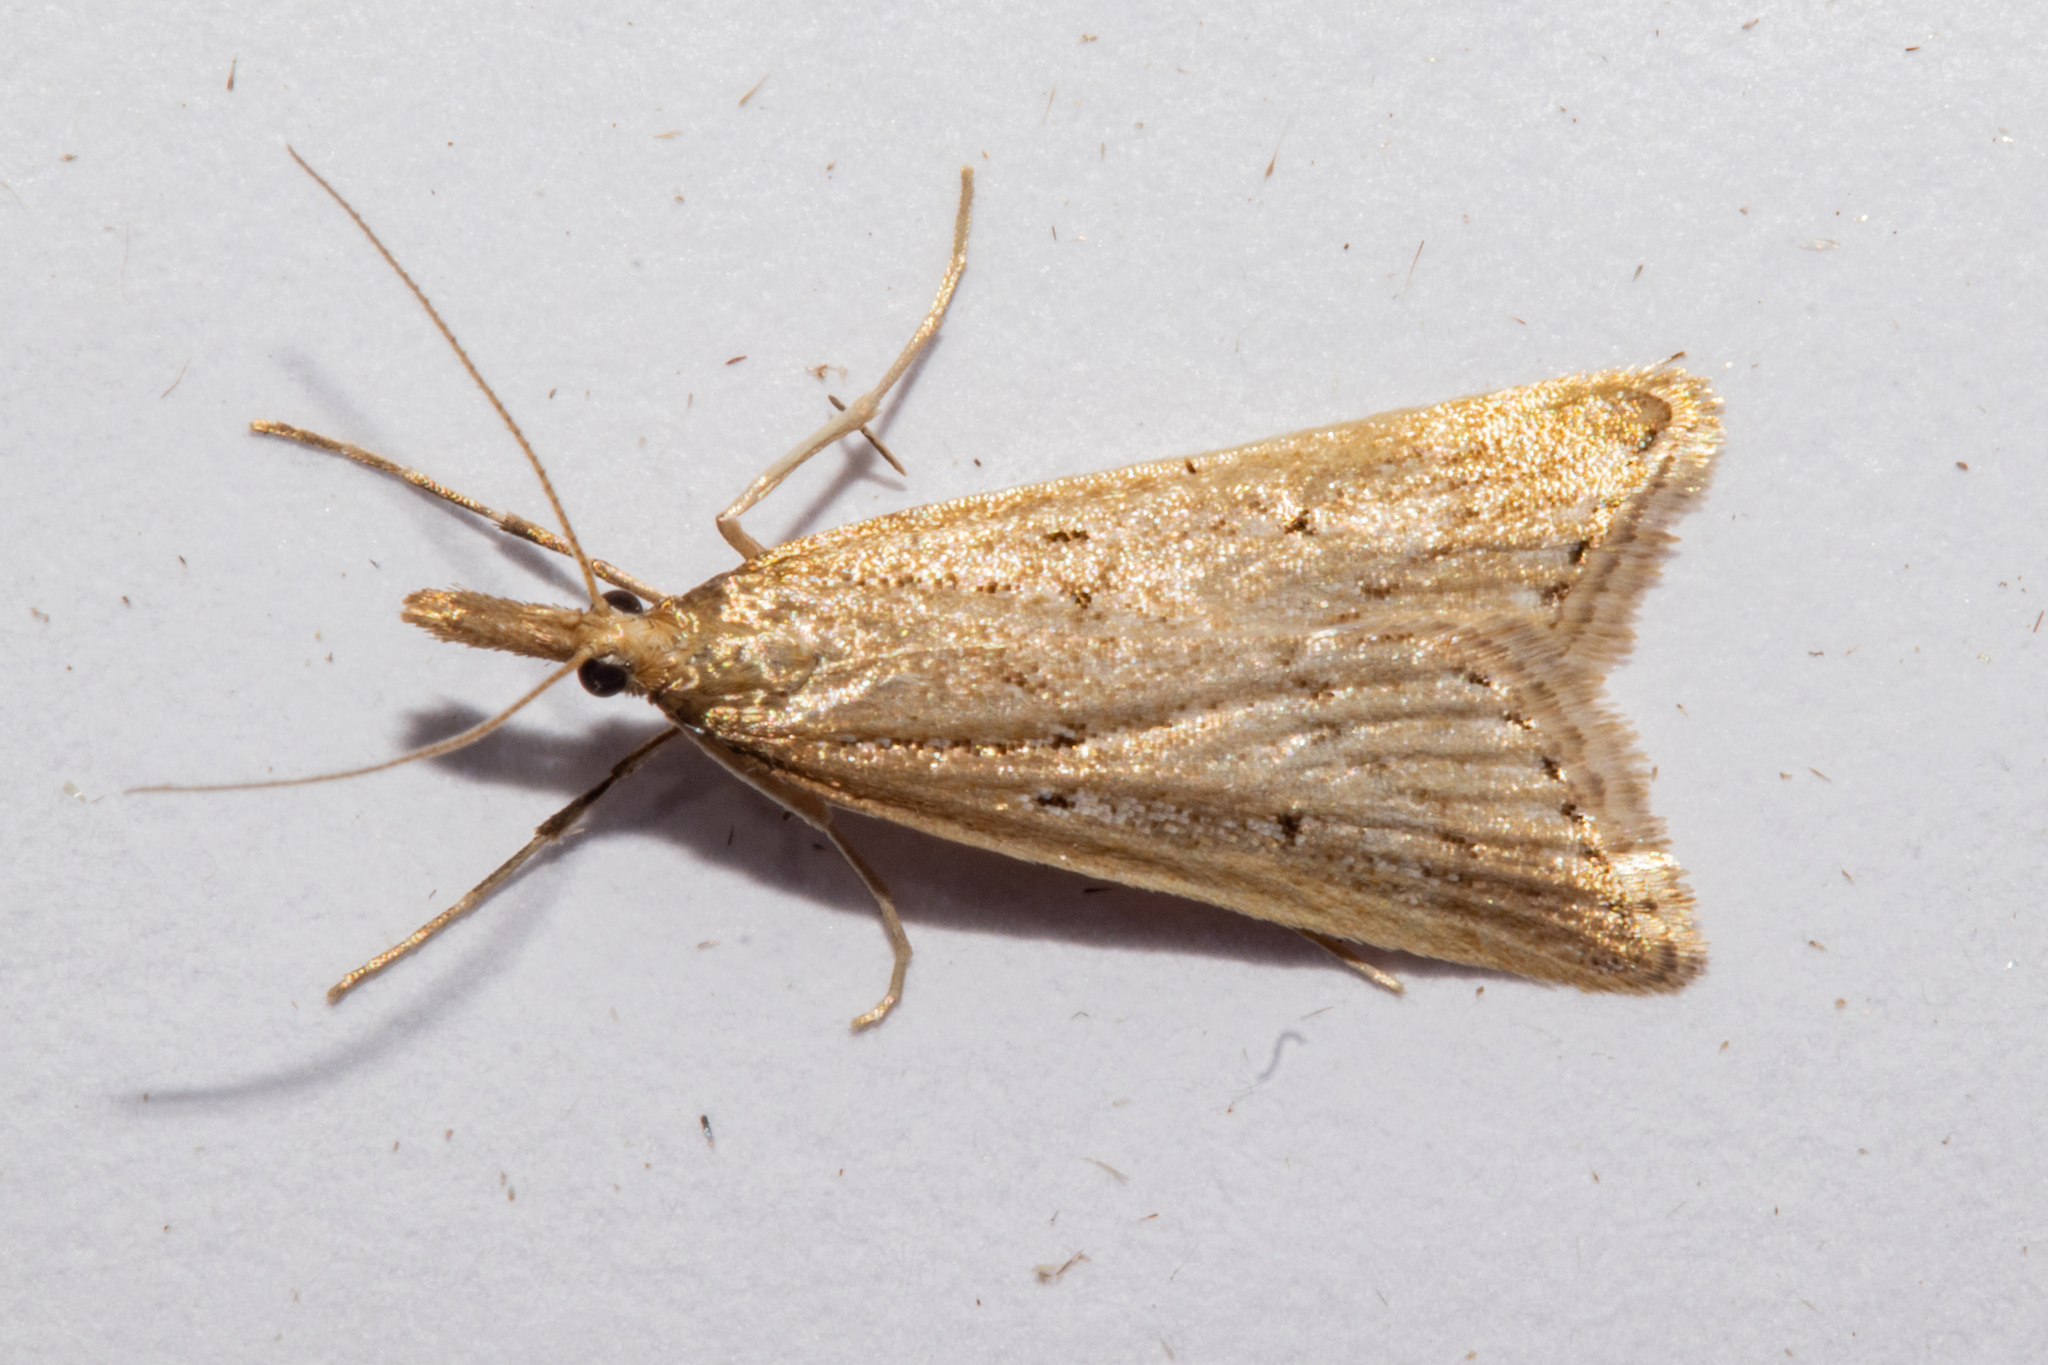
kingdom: Animalia
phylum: Arthropoda
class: Insecta
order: Lepidoptera
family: Crambidae
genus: Antiscopa
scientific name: Antiscopa elaphra
